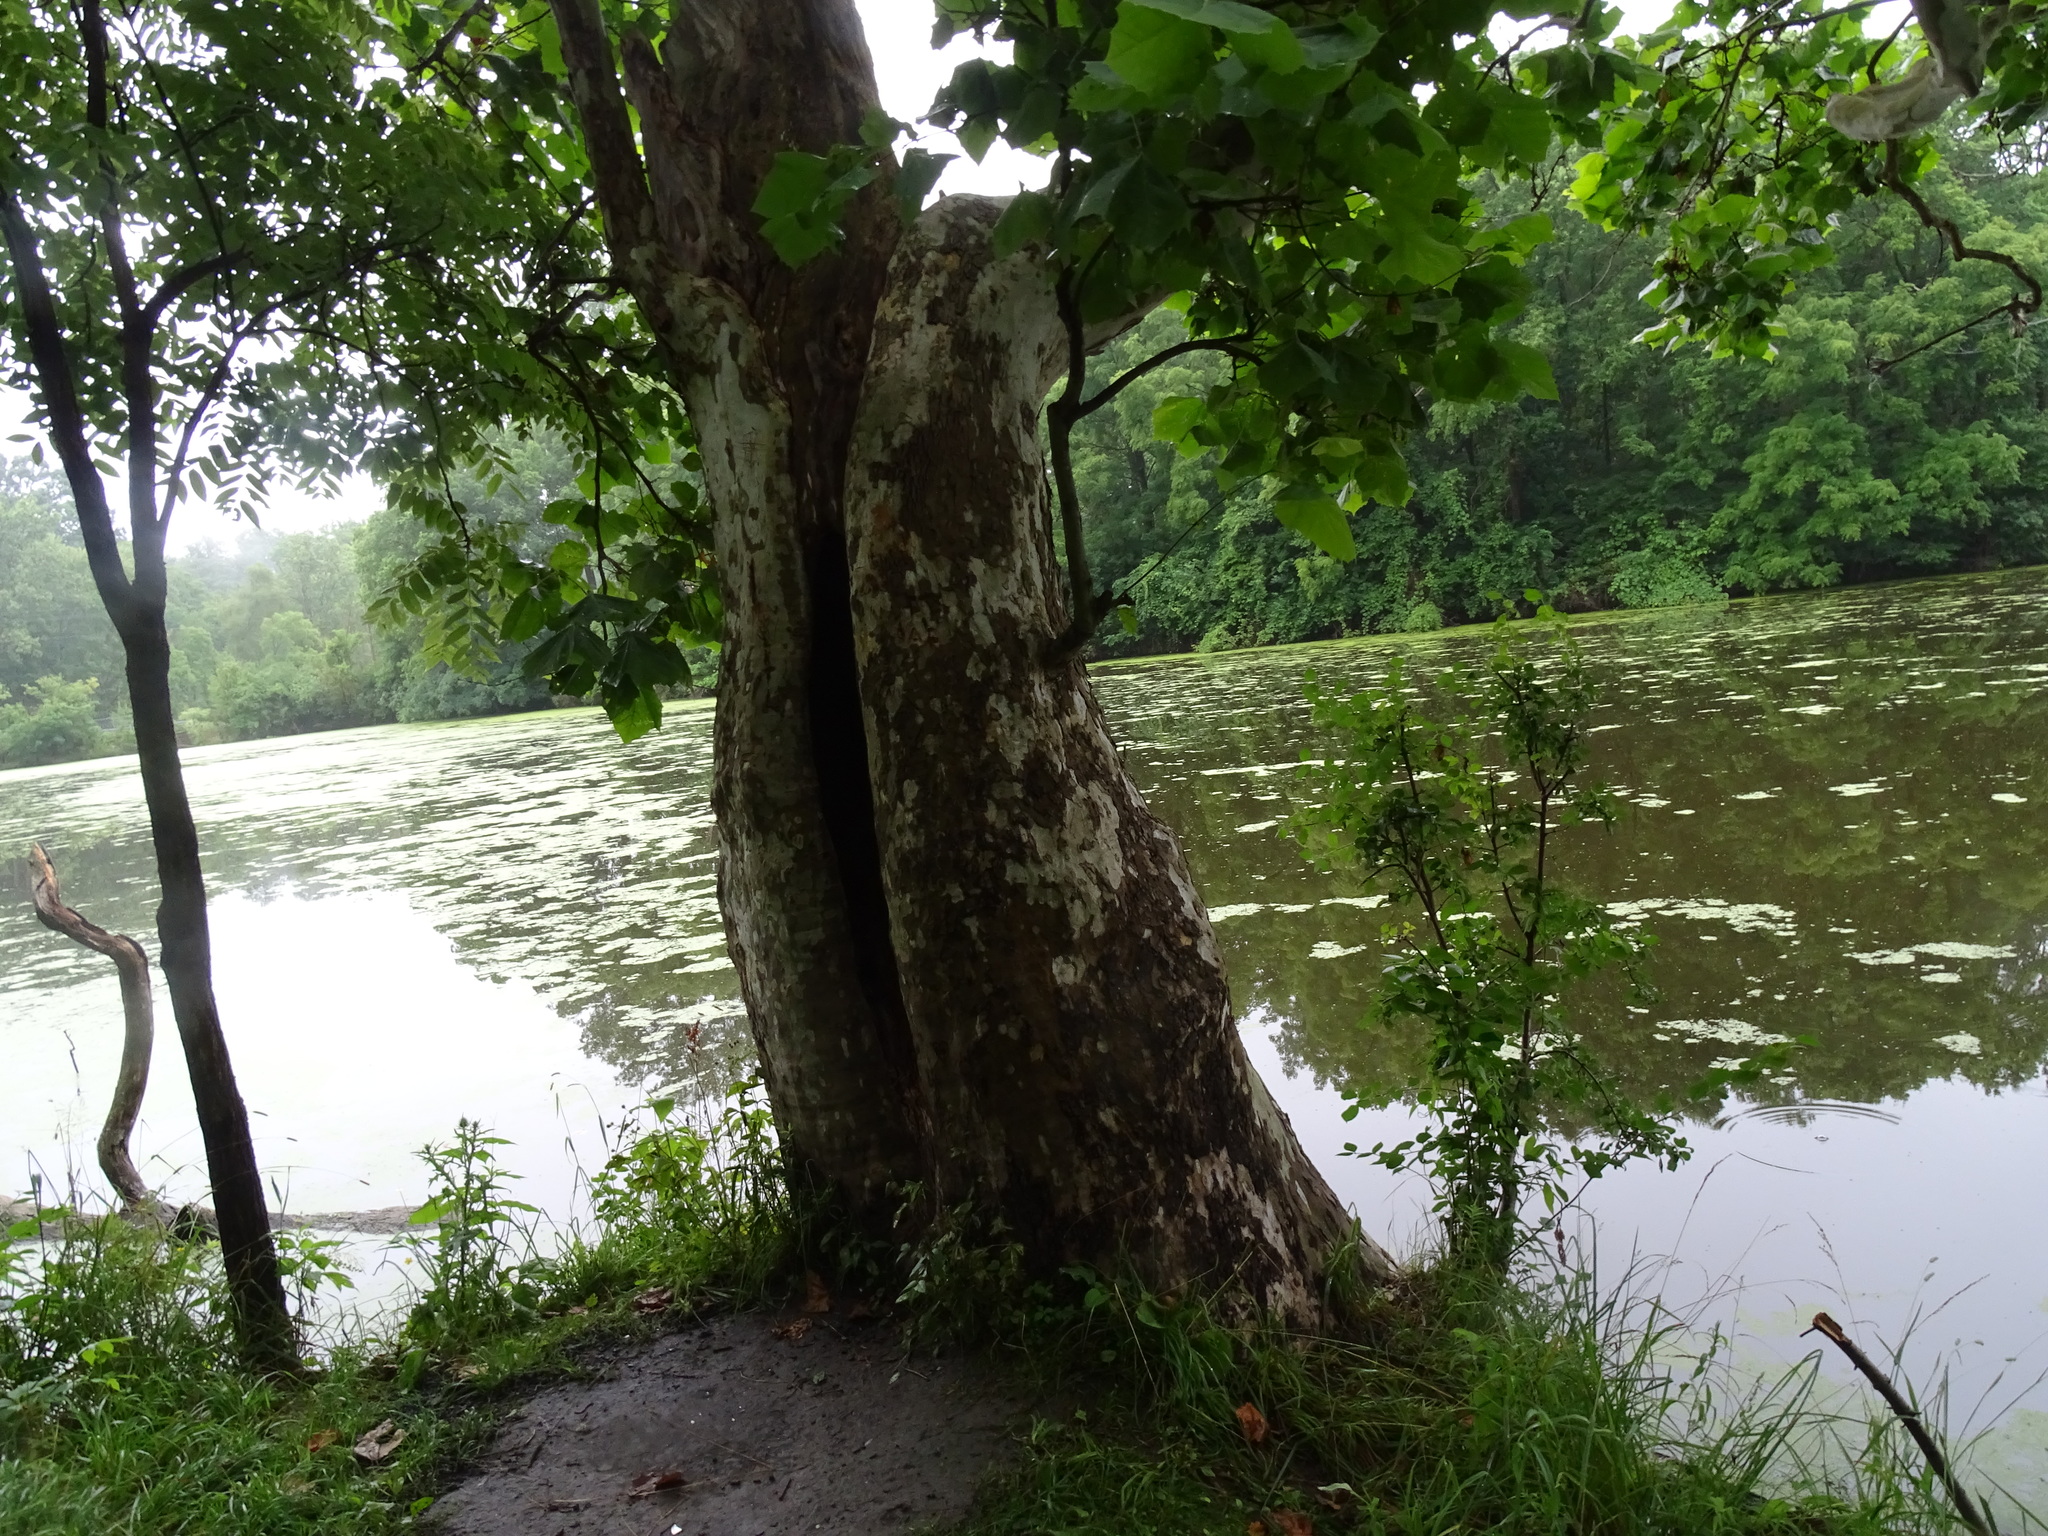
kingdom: Plantae
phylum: Tracheophyta
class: Magnoliopsida
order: Proteales
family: Platanaceae
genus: Platanus
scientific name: Platanus occidentalis
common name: American sycamore
